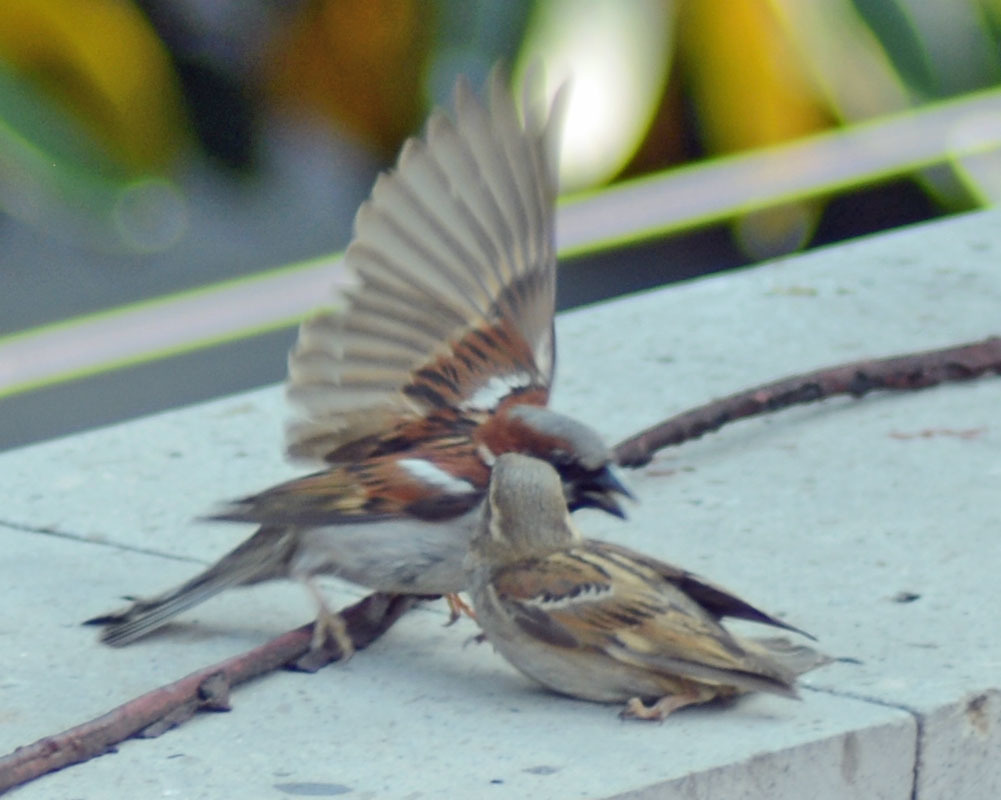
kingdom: Animalia
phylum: Chordata
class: Aves
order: Passeriformes
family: Passeridae
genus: Passer
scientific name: Passer domesticus
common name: House sparrow
